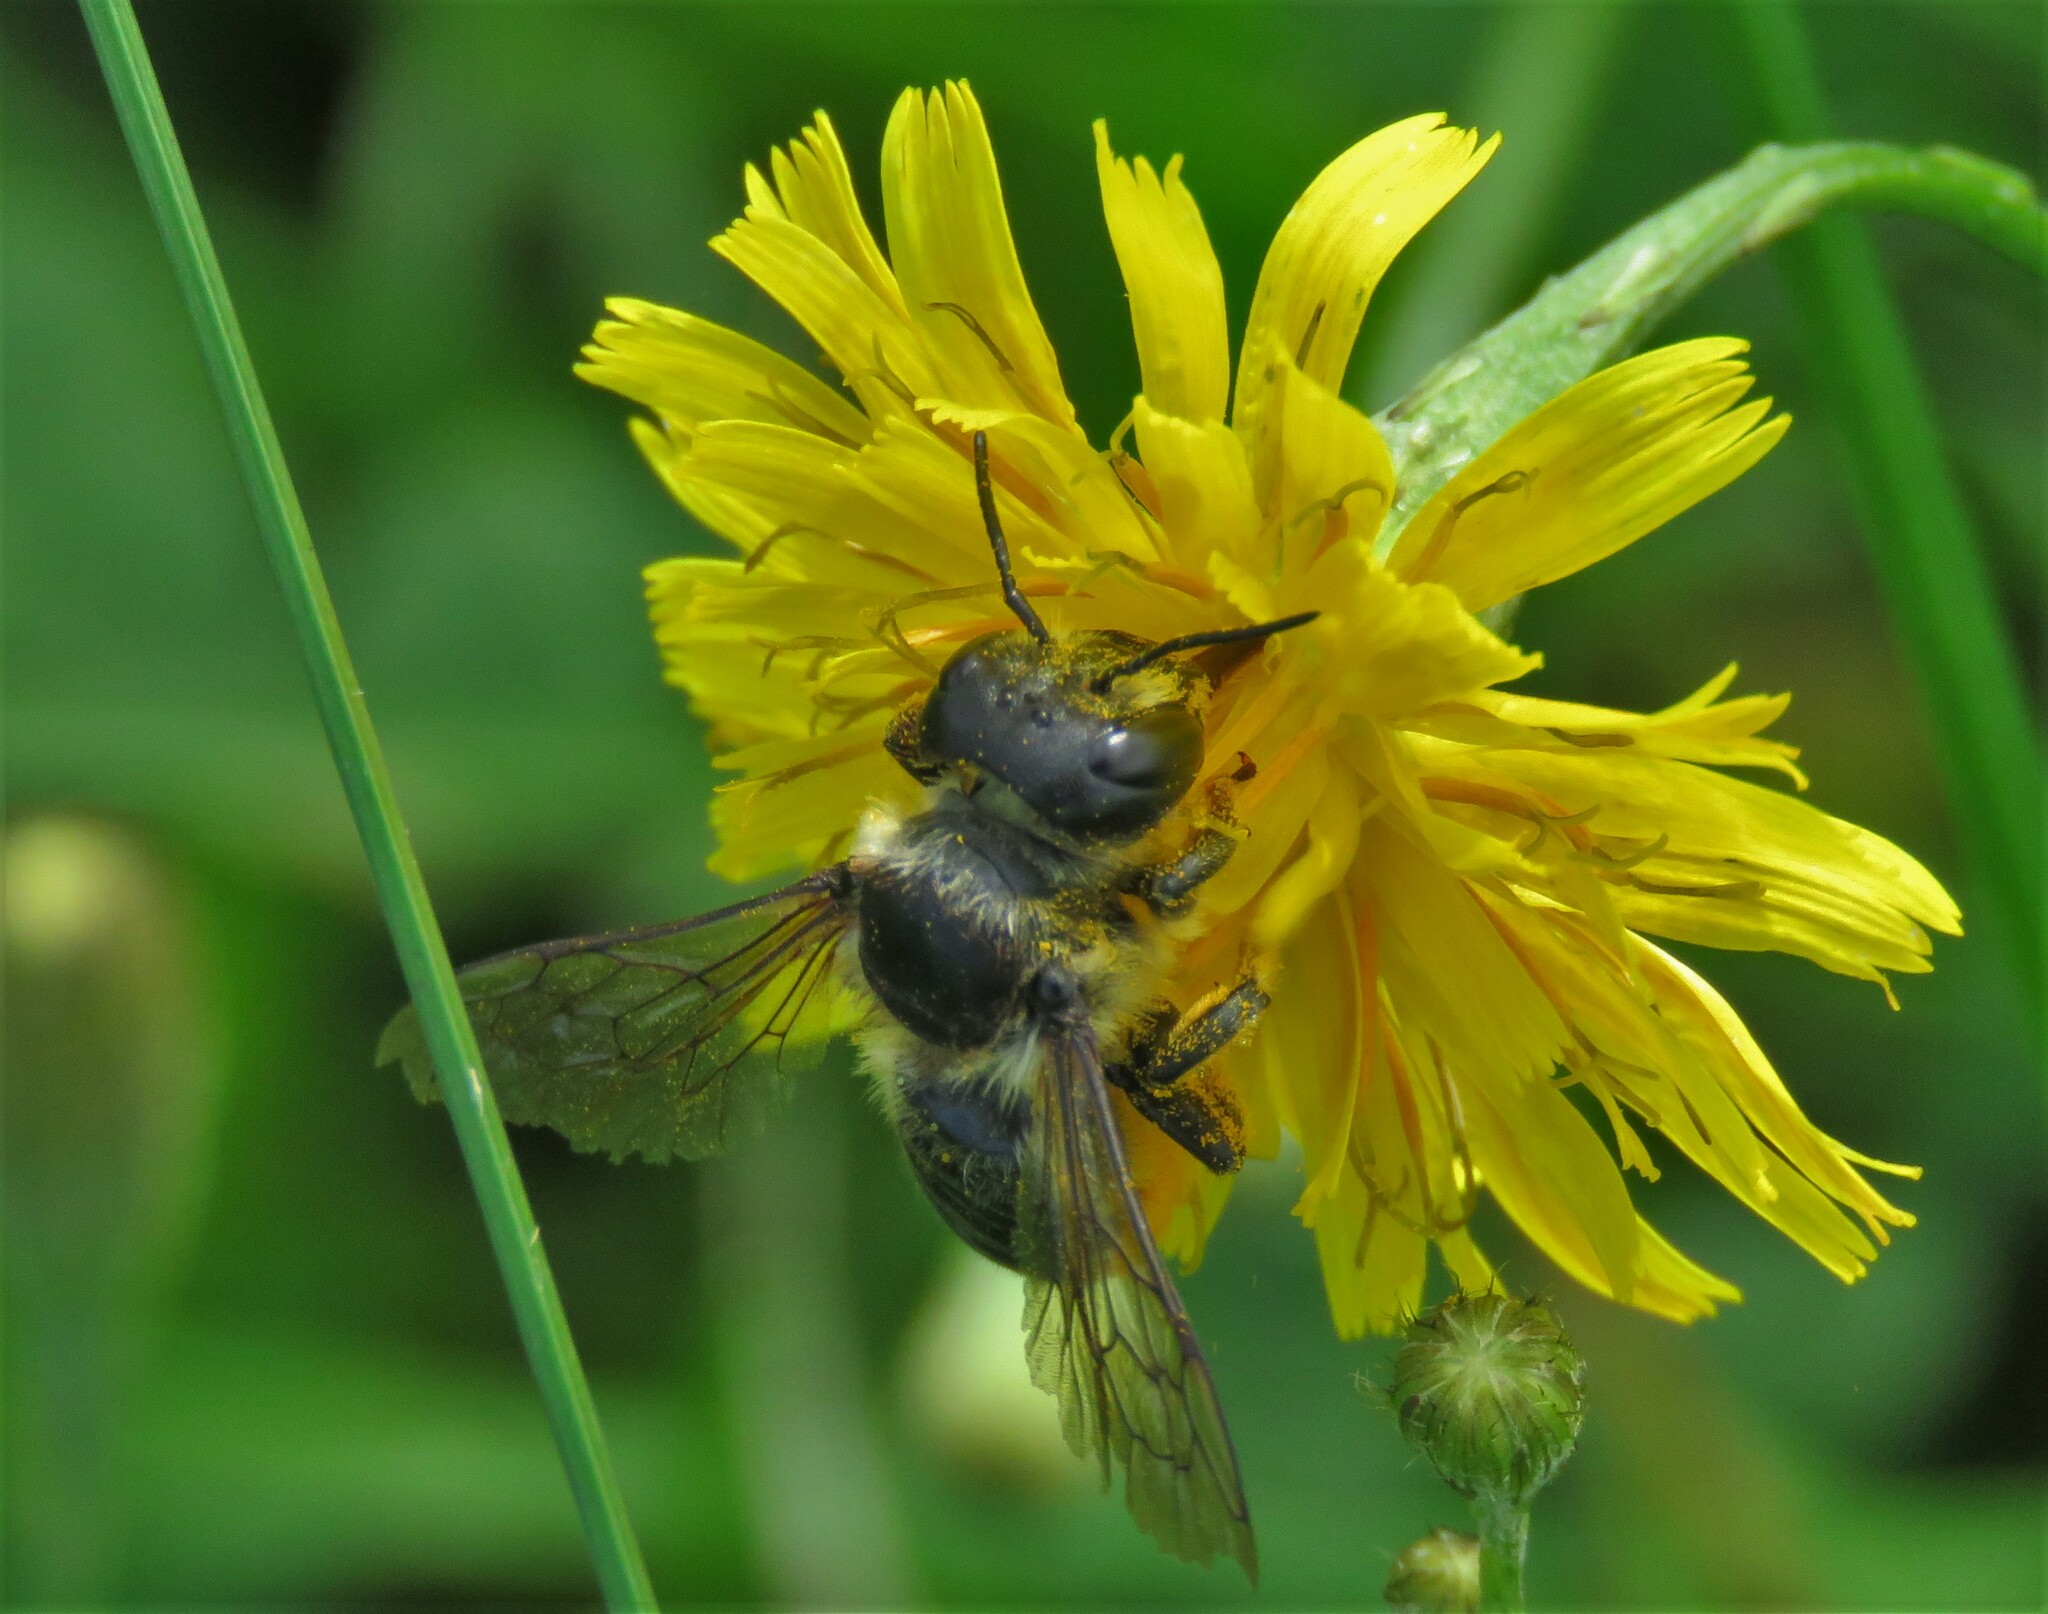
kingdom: Animalia
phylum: Arthropoda
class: Insecta
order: Hymenoptera
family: Megachilidae
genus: Megachile
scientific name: Megachile inermis
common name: Unarmed leafcutter bee
